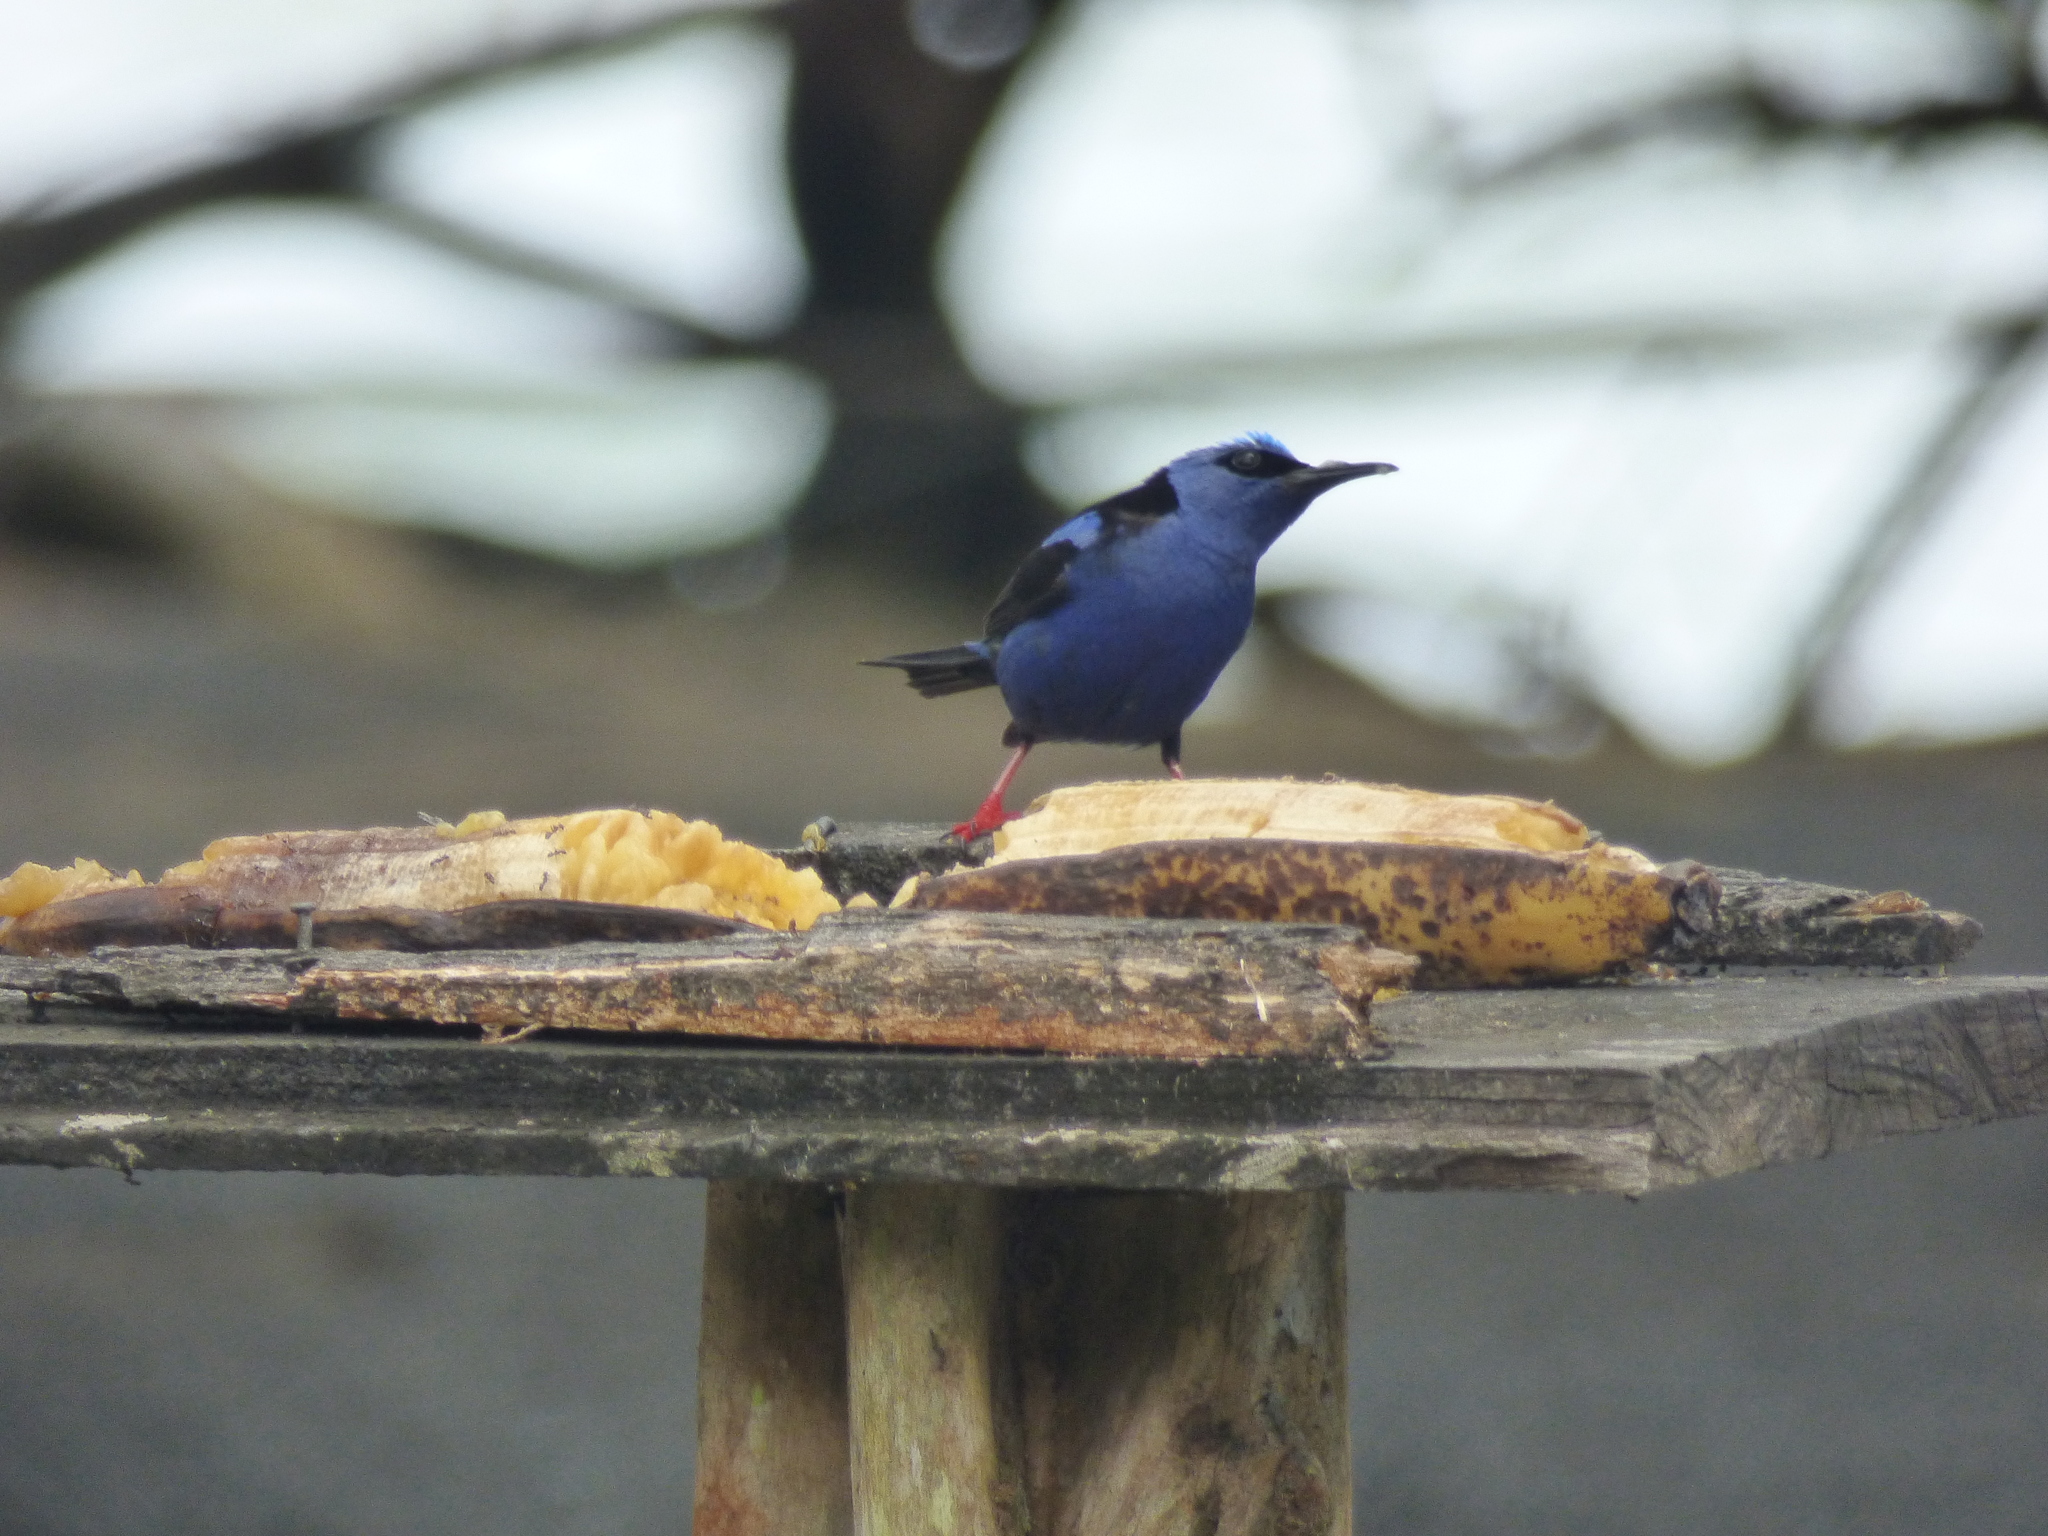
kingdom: Animalia
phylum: Chordata
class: Aves
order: Passeriformes
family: Thraupidae
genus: Cyanerpes
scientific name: Cyanerpes cyaneus
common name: Red-legged honeycreeper
